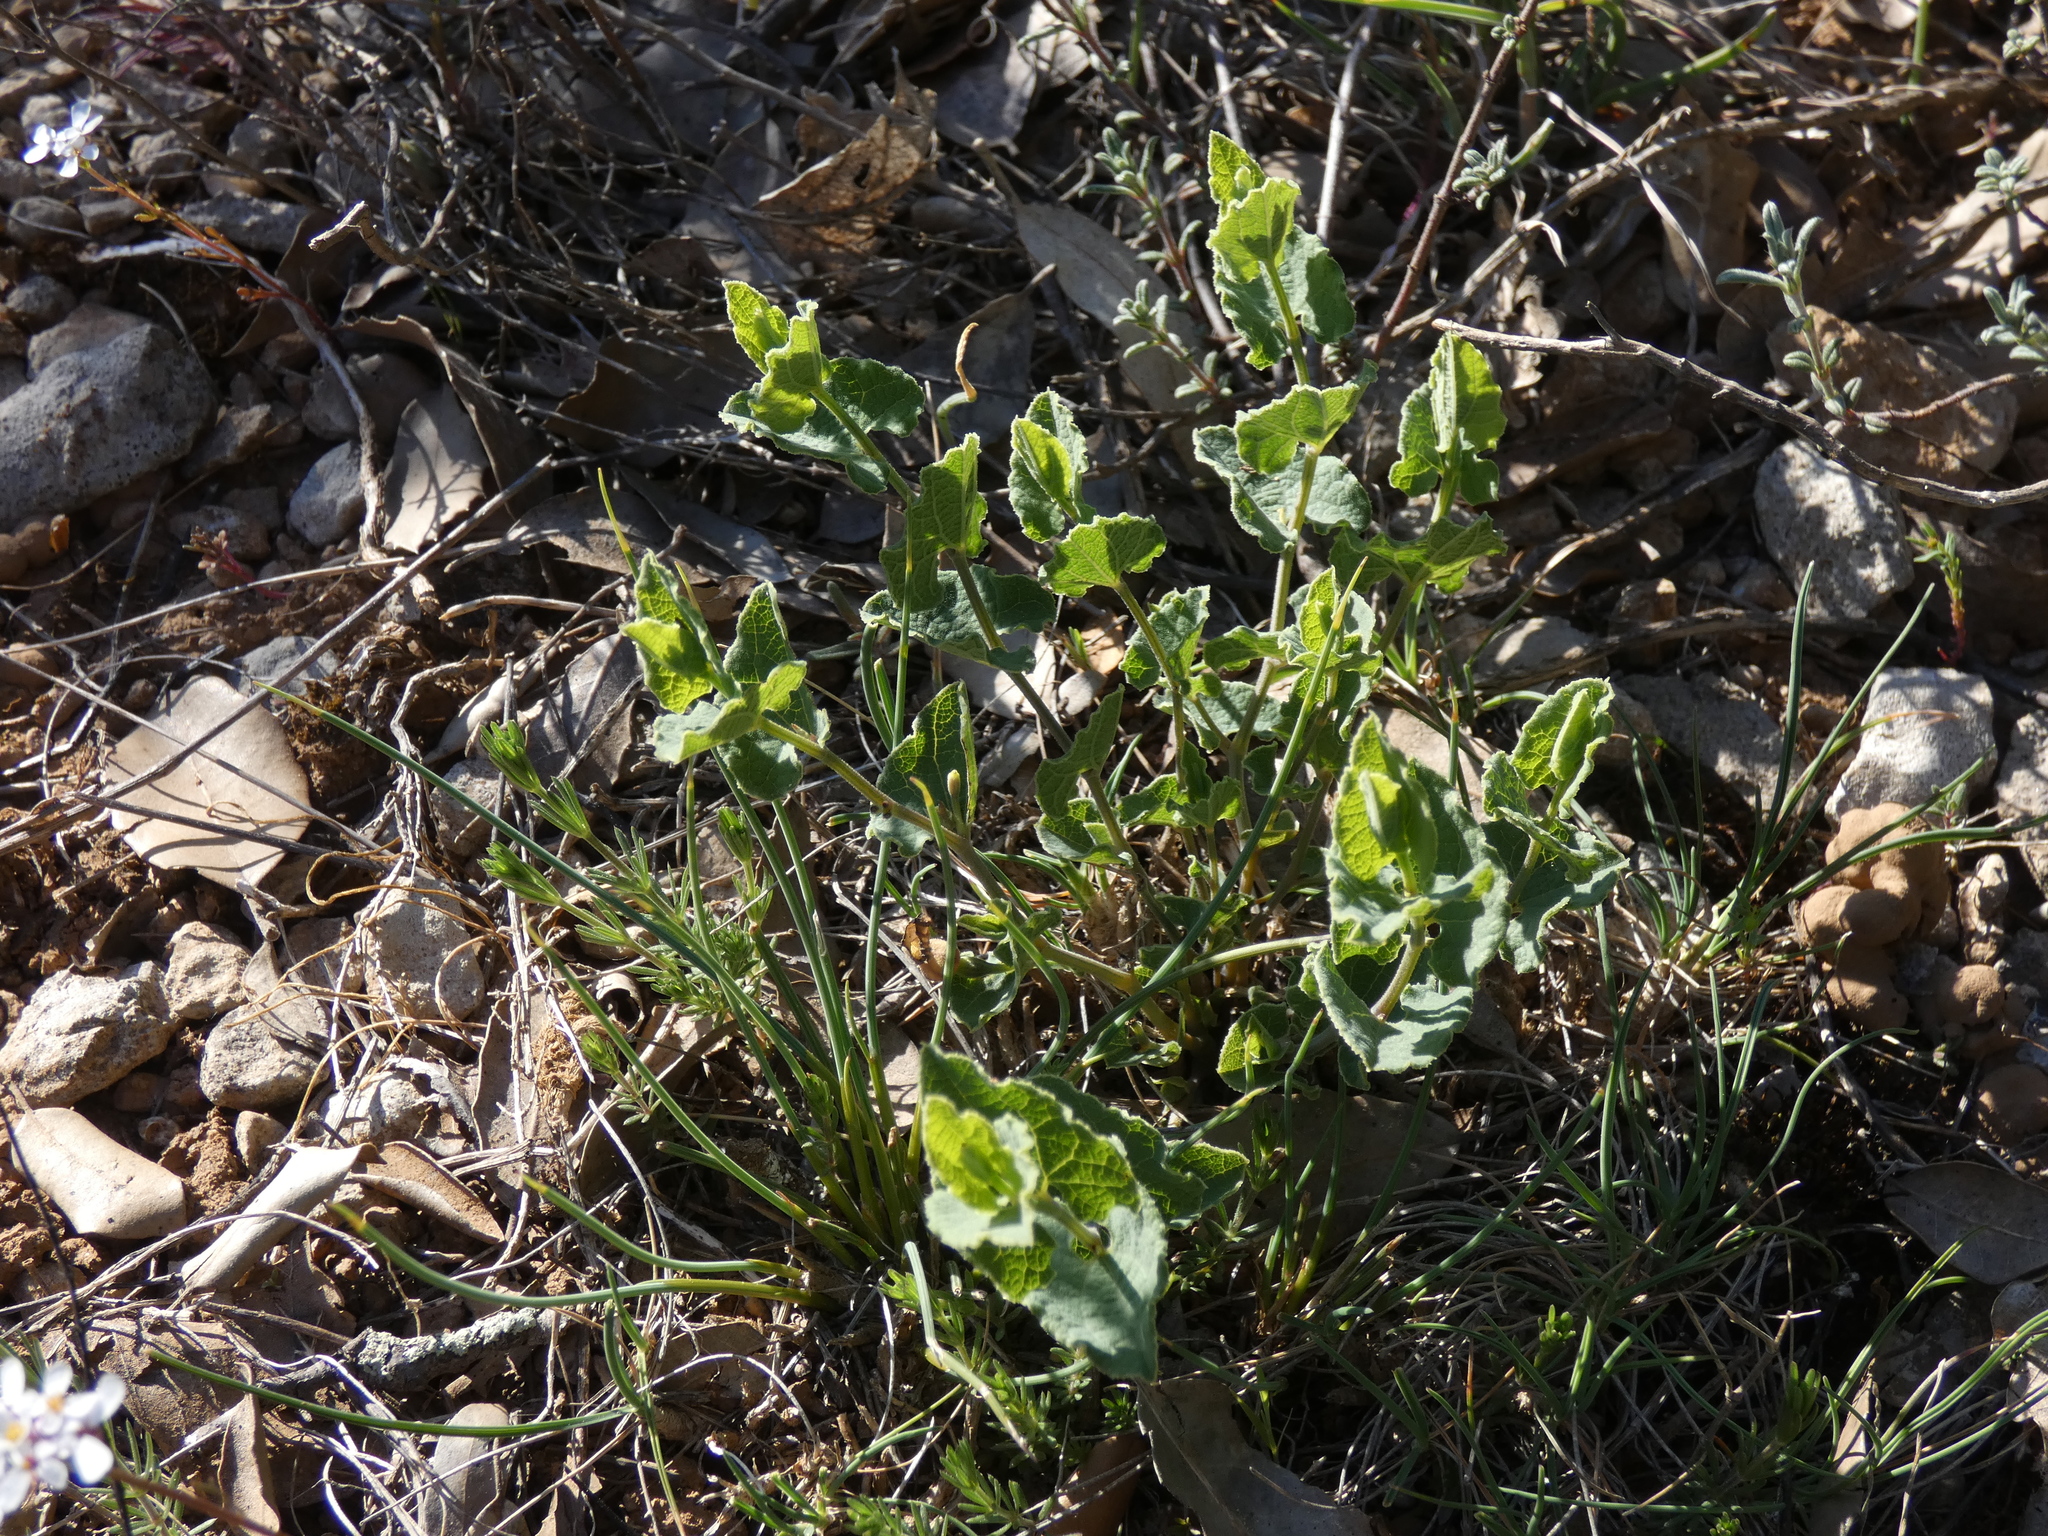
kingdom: Plantae
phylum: Tracheophyta
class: Magnoliopsida
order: Piperales
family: Aristolochiaceae
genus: Aristolochia
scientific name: Aristolochia pistolochia
